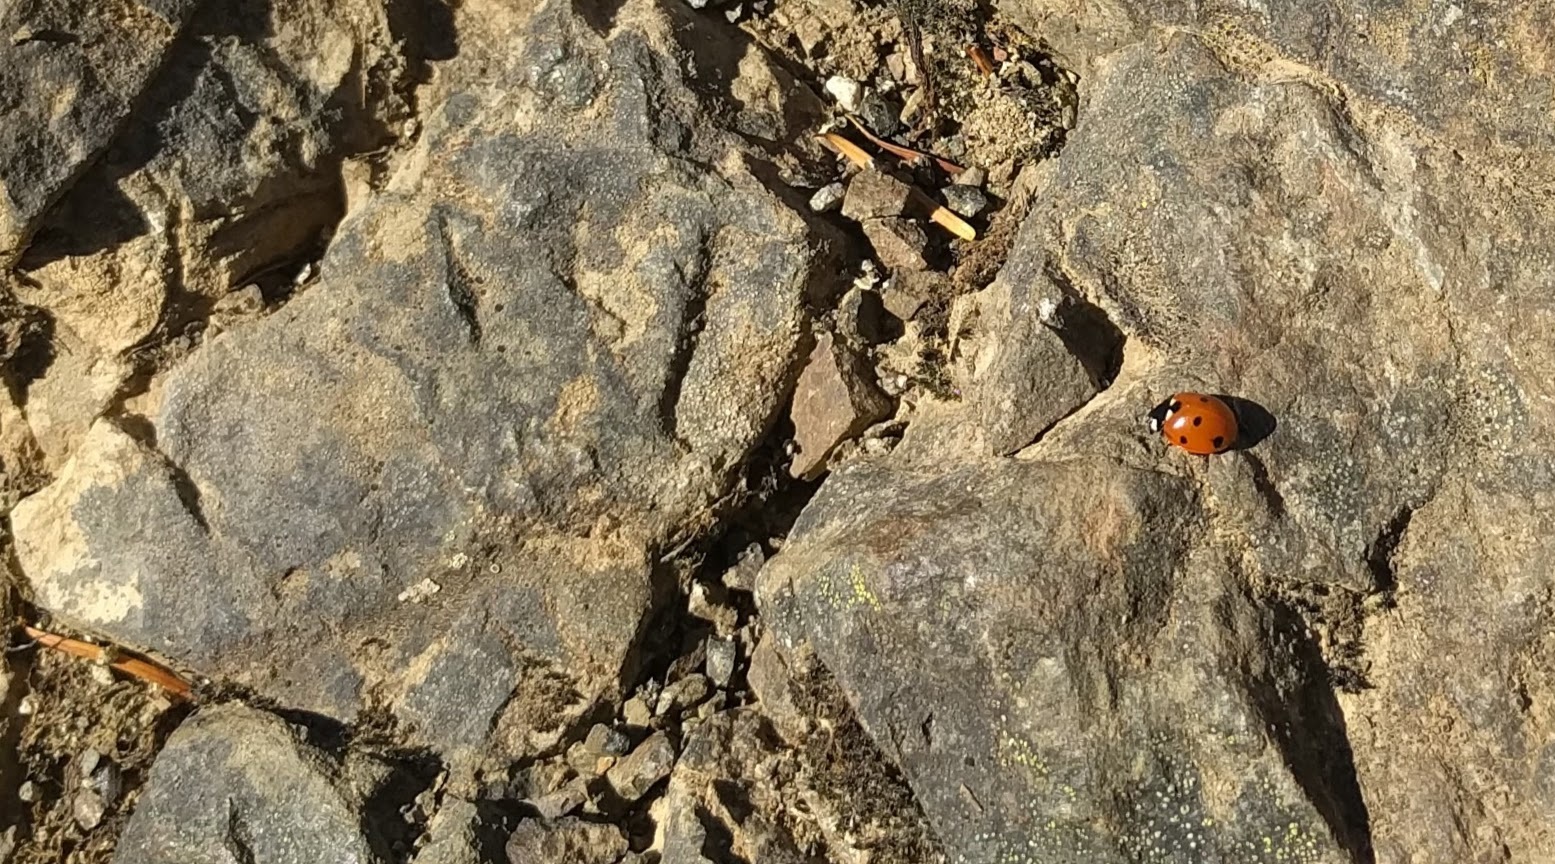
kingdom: Animalia
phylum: Arthropoda
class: Insecta
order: Coleoptera
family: Coccinellidae
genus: Coccinella
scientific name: Coccinella septempunctata
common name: Sevenspotted lady beetle
